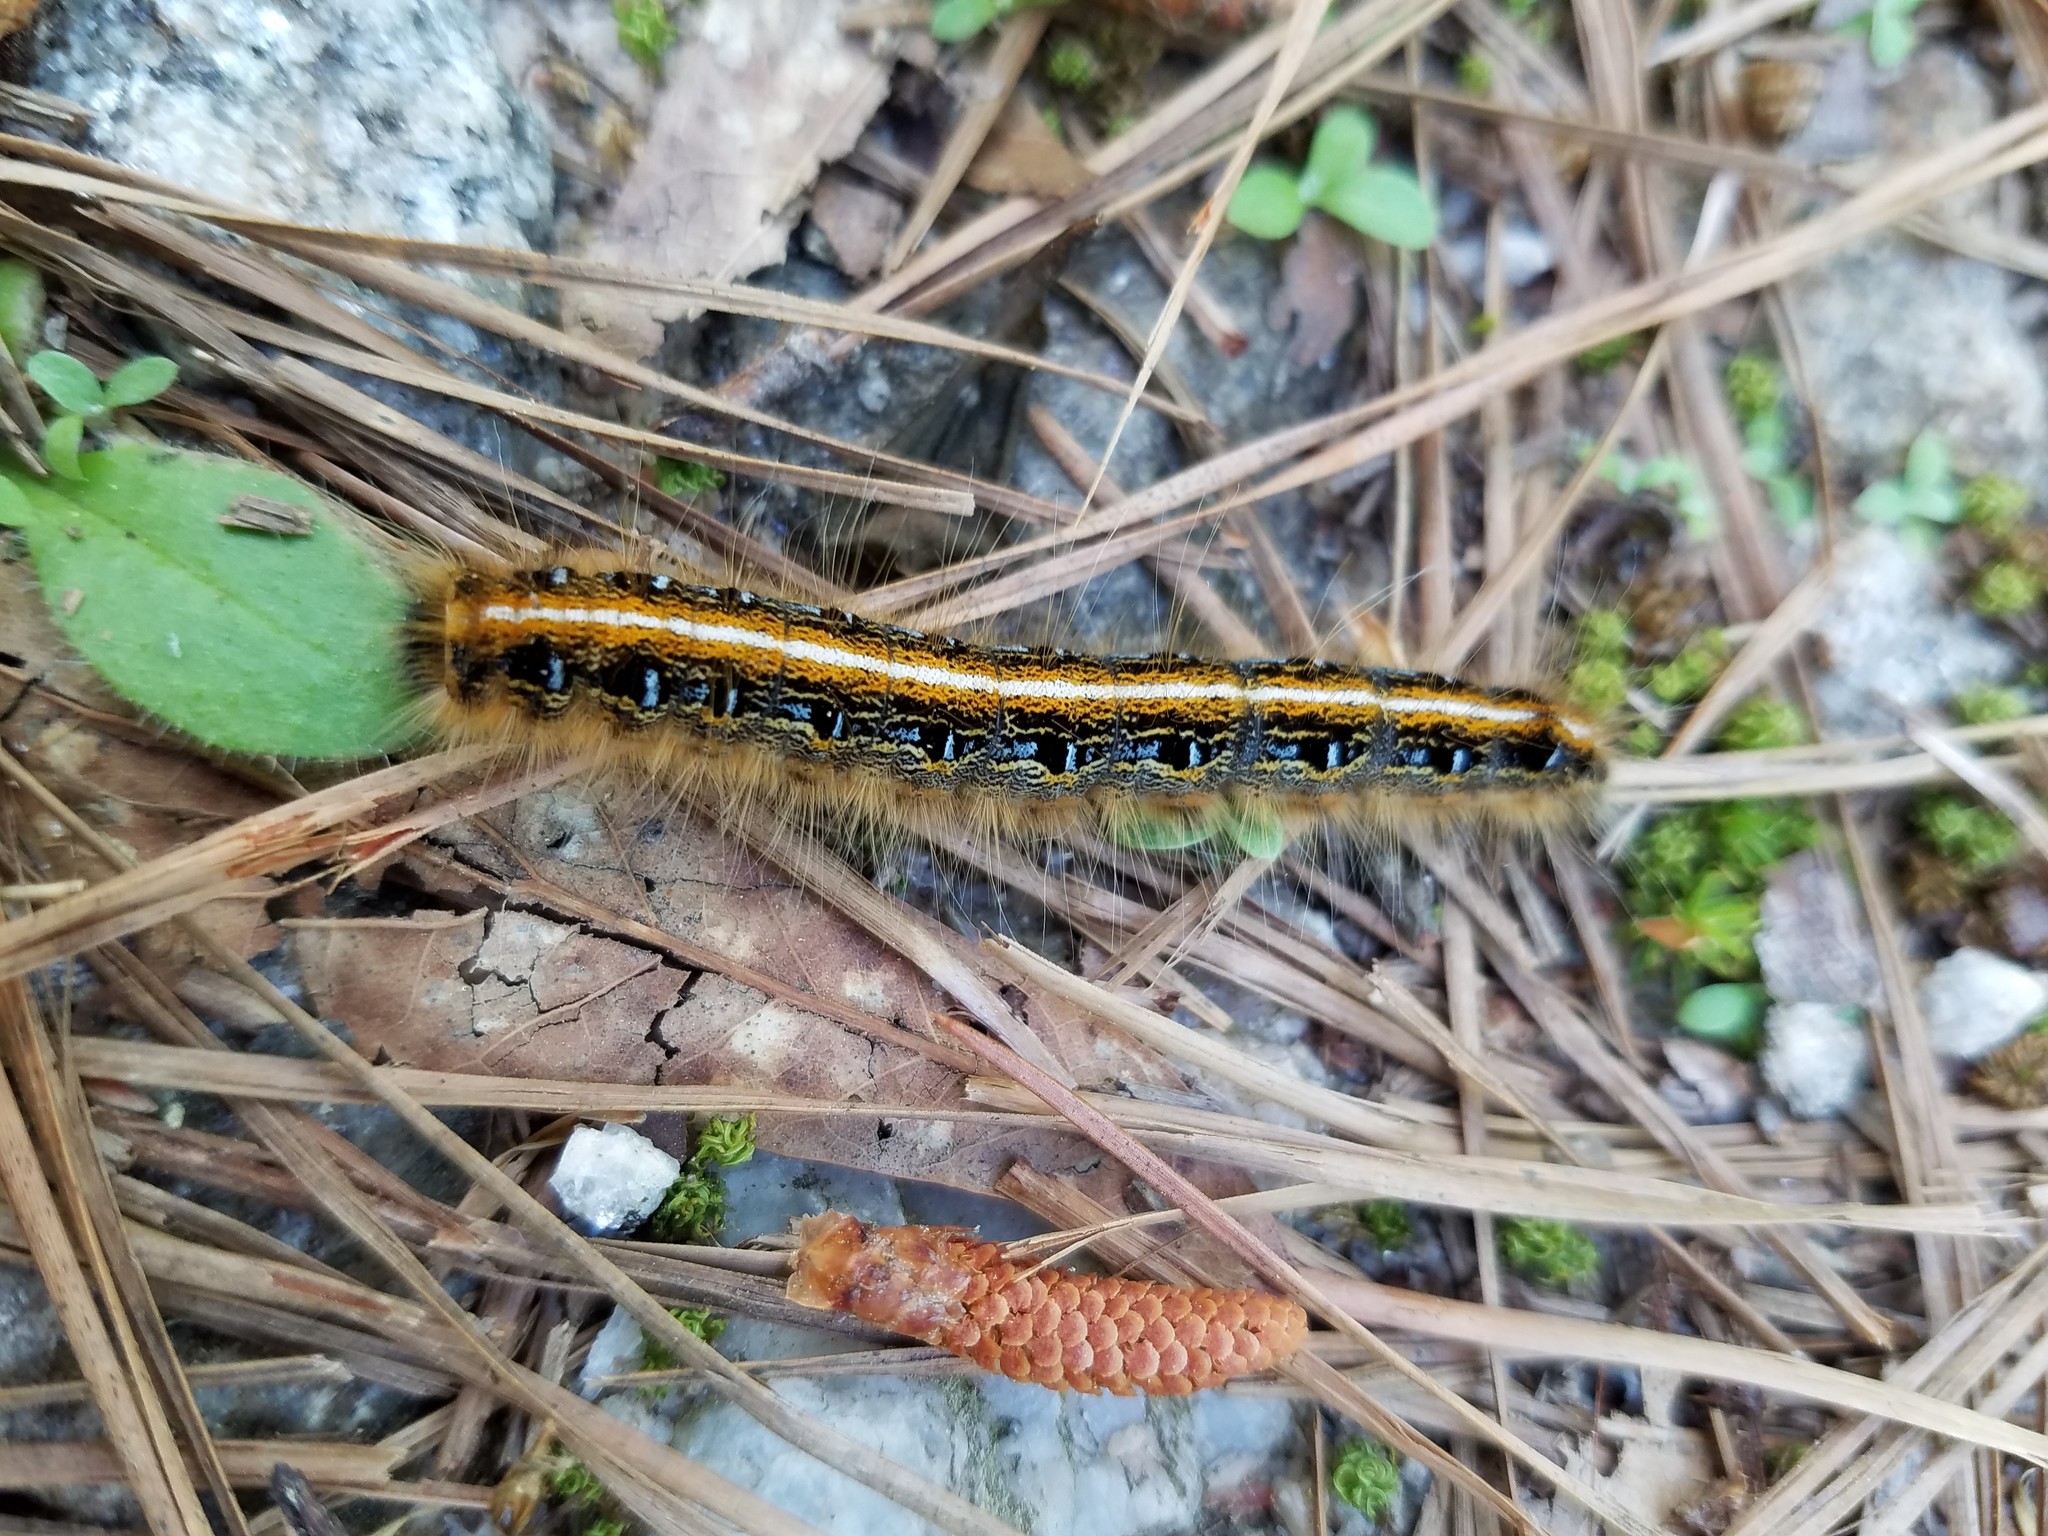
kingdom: Animalia
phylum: Arthropoda
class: Insecta
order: Lepidoptera
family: Lasiocampidae
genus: Malacosoma
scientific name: Malacosoma americana
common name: Eastern tent caterpillar moth
